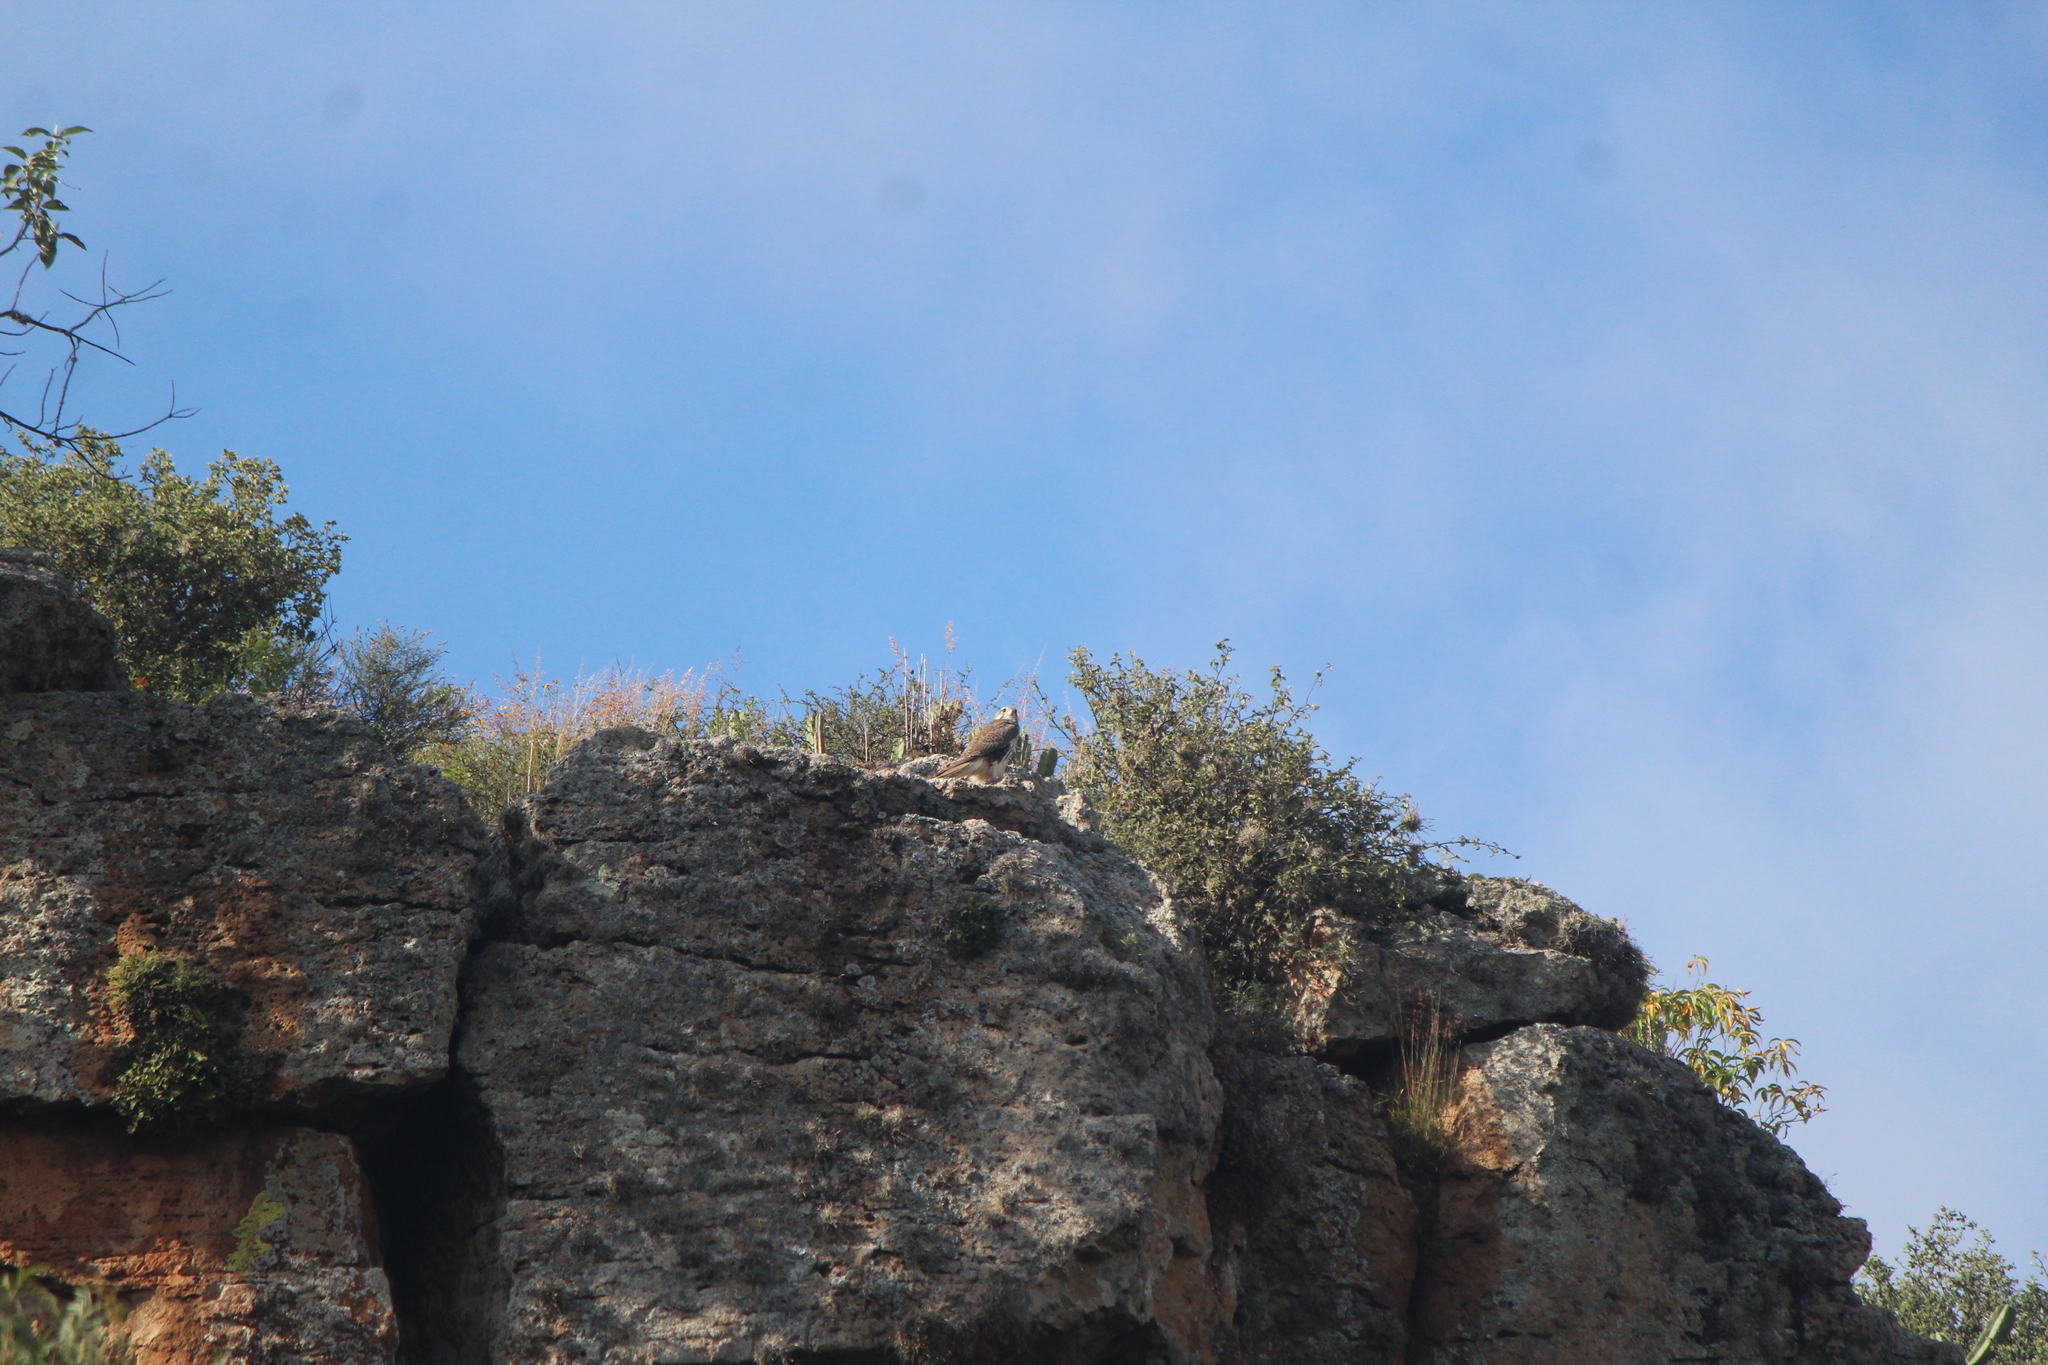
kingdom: Animalia
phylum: Chordata
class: Aves
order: Falconiformes
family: Falconidae
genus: Falco
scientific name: Falco mexicanus
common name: Prairie falcon
